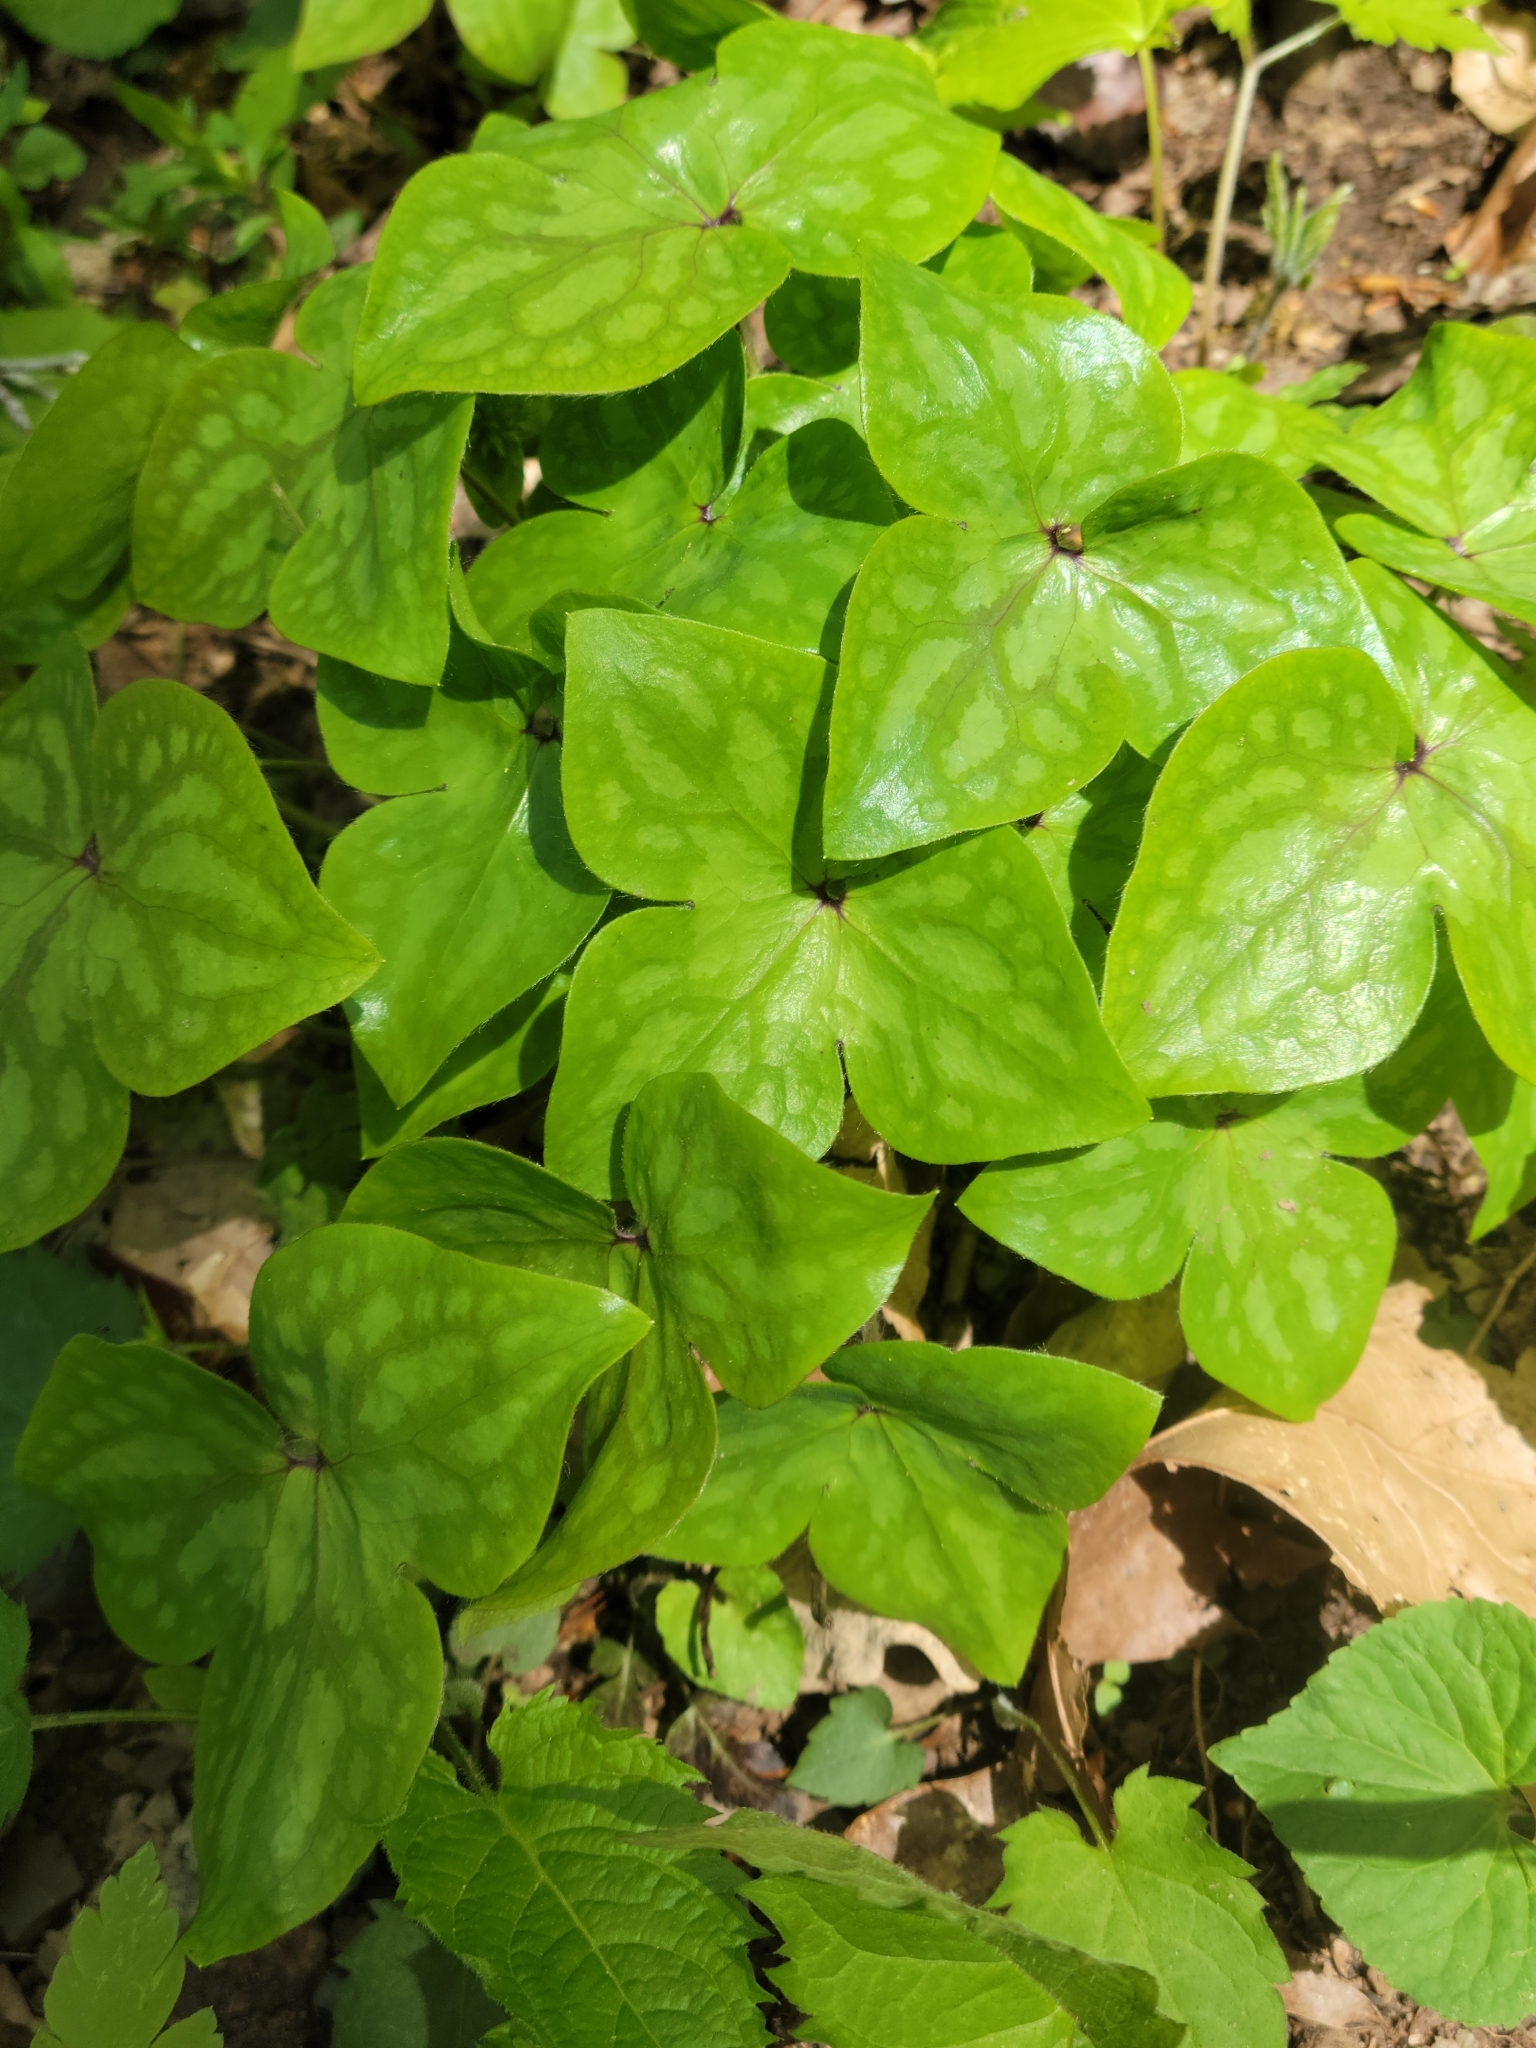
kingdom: Plantae
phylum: Tracheophyta
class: Magnoliopsida
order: Ranunculales
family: Ranunculaceae
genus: Hepatica
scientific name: Hepatica acutiloba
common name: Sharp-lobed hepatica
